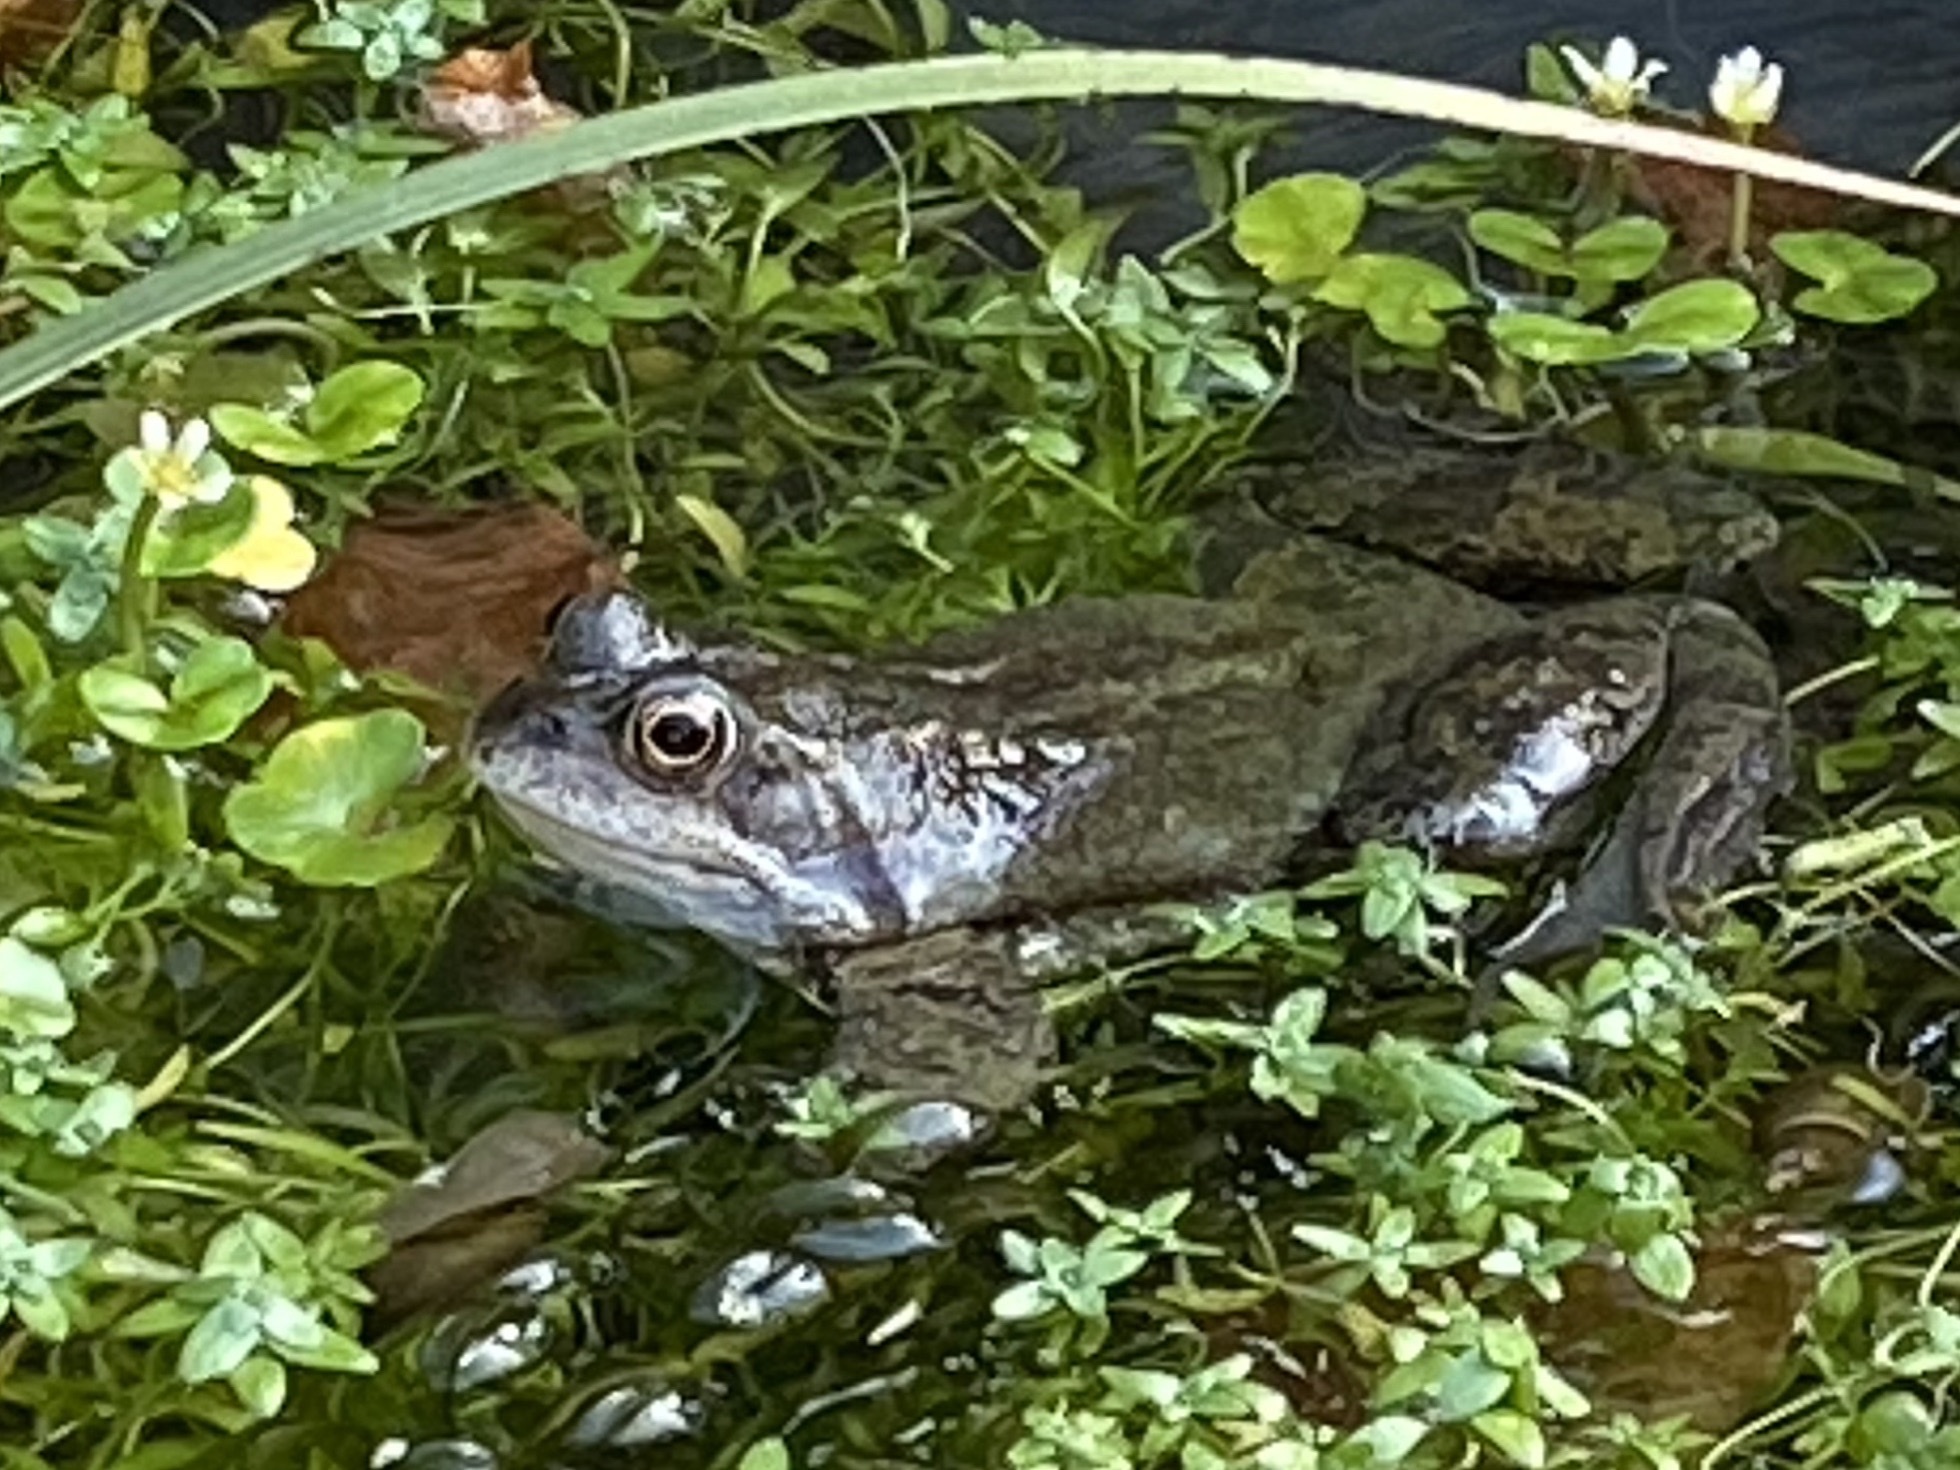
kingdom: Animalia
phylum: Chordata
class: Amphibia
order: Anura
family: Ranidae
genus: Rana
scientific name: Rana temporaria
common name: Common frog
